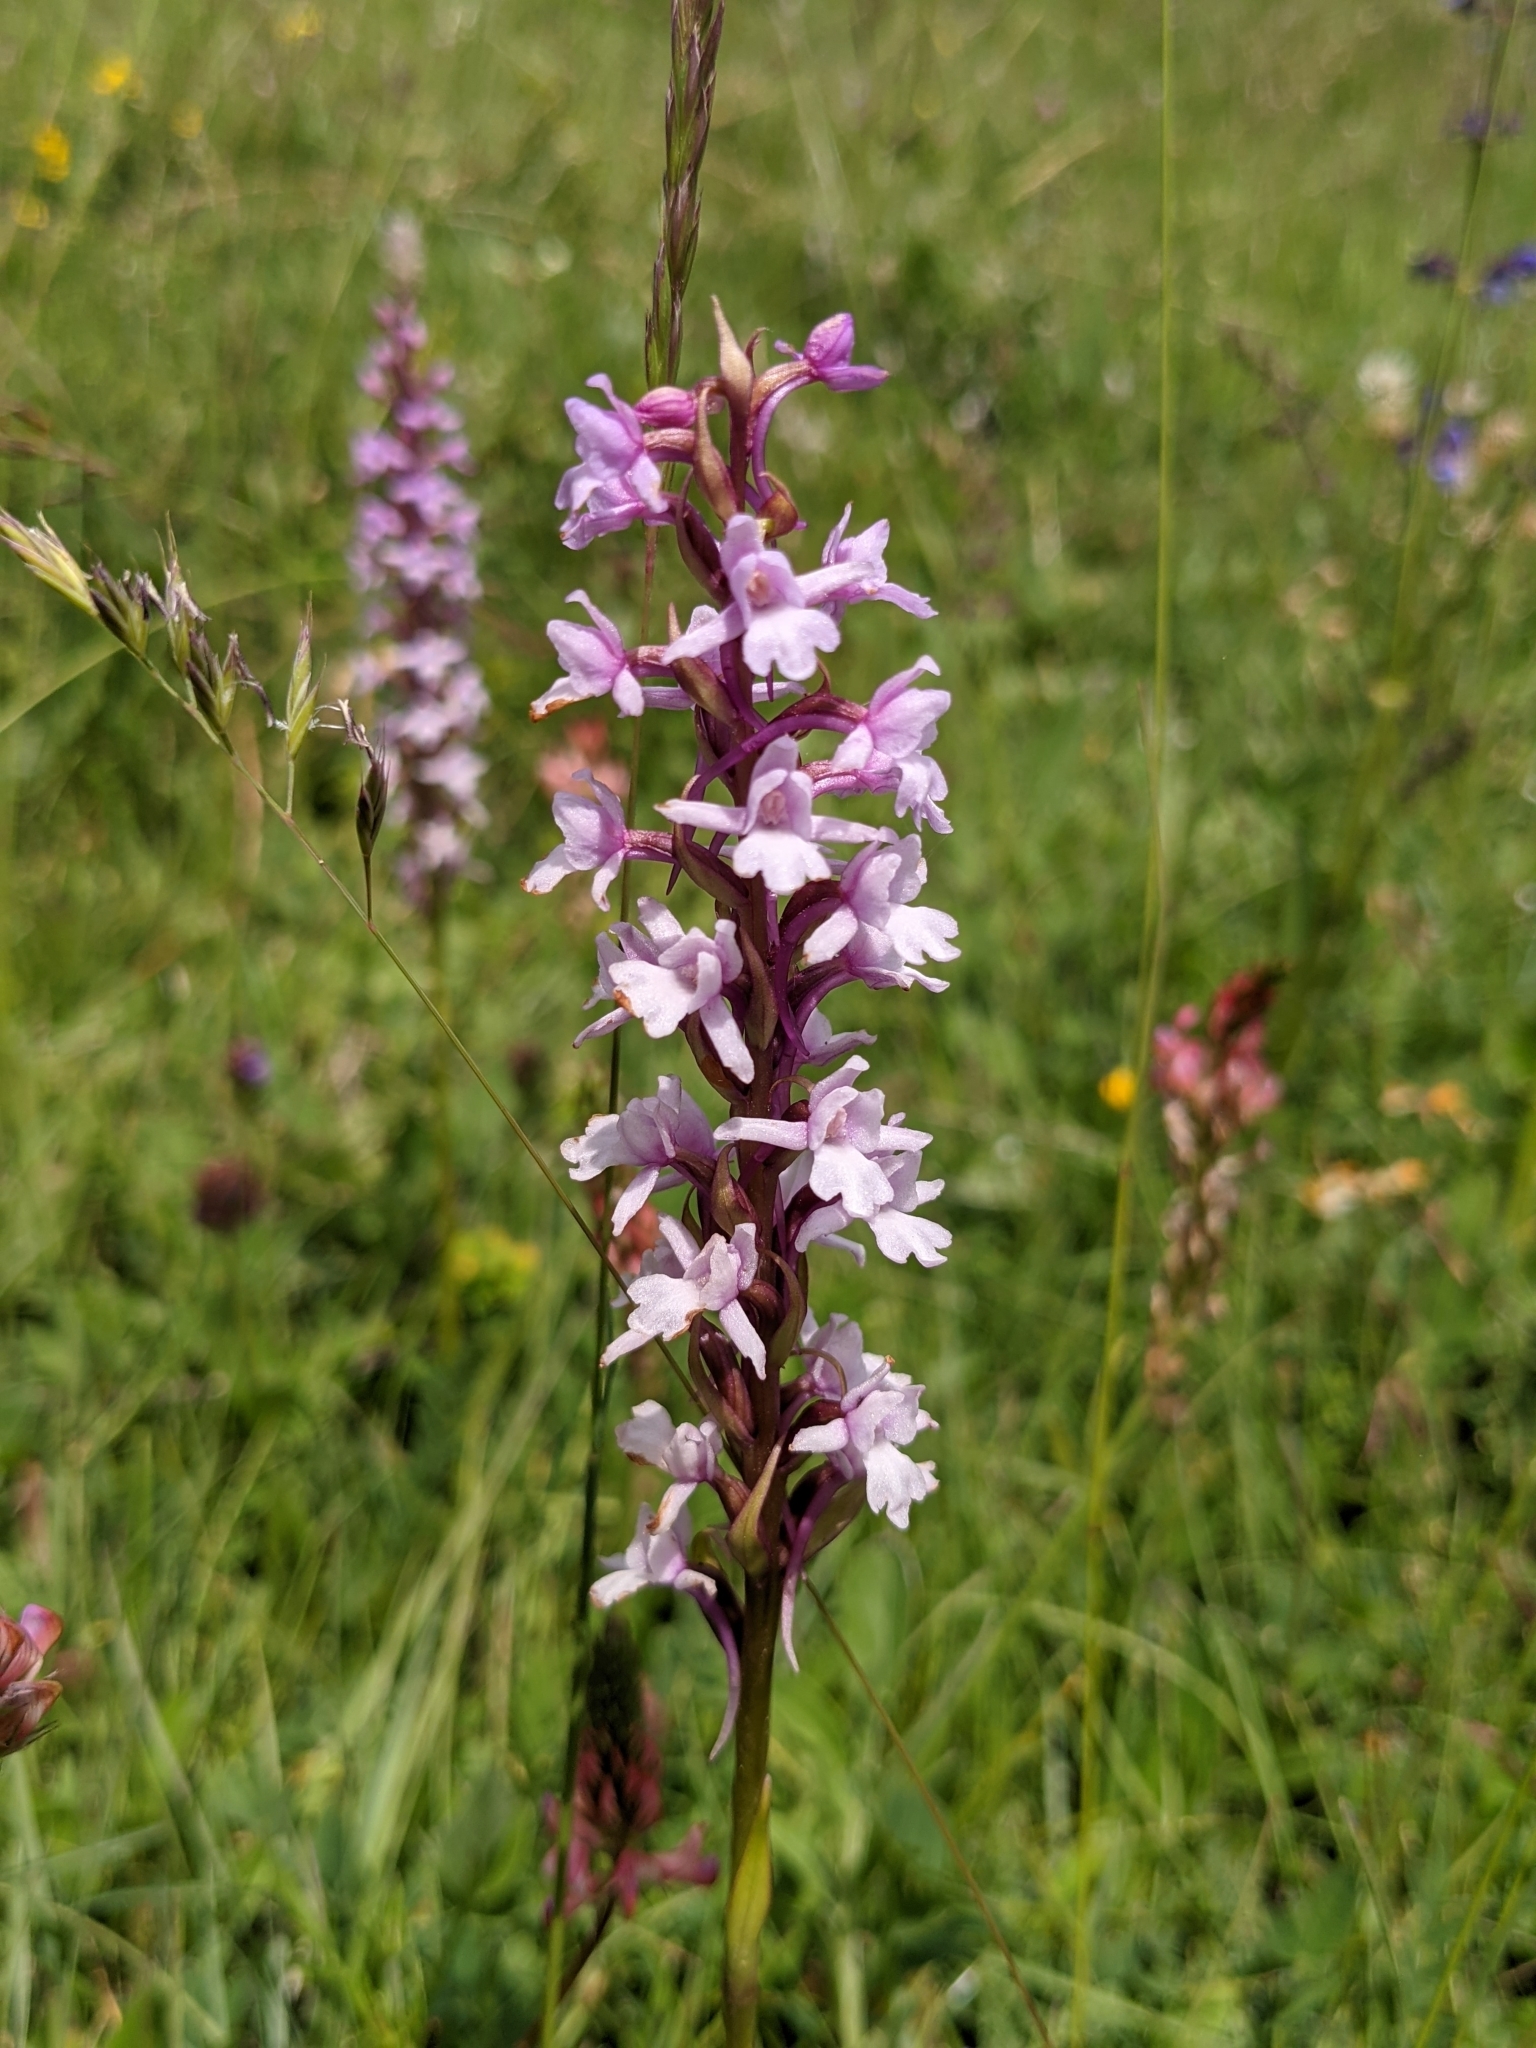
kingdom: Plantae
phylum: Tracheophyta
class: Liliopsida
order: Asparagales
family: Orchidaceae
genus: Gymnadenia
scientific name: Gymnadenia conopsea
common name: Fragrant orchid
